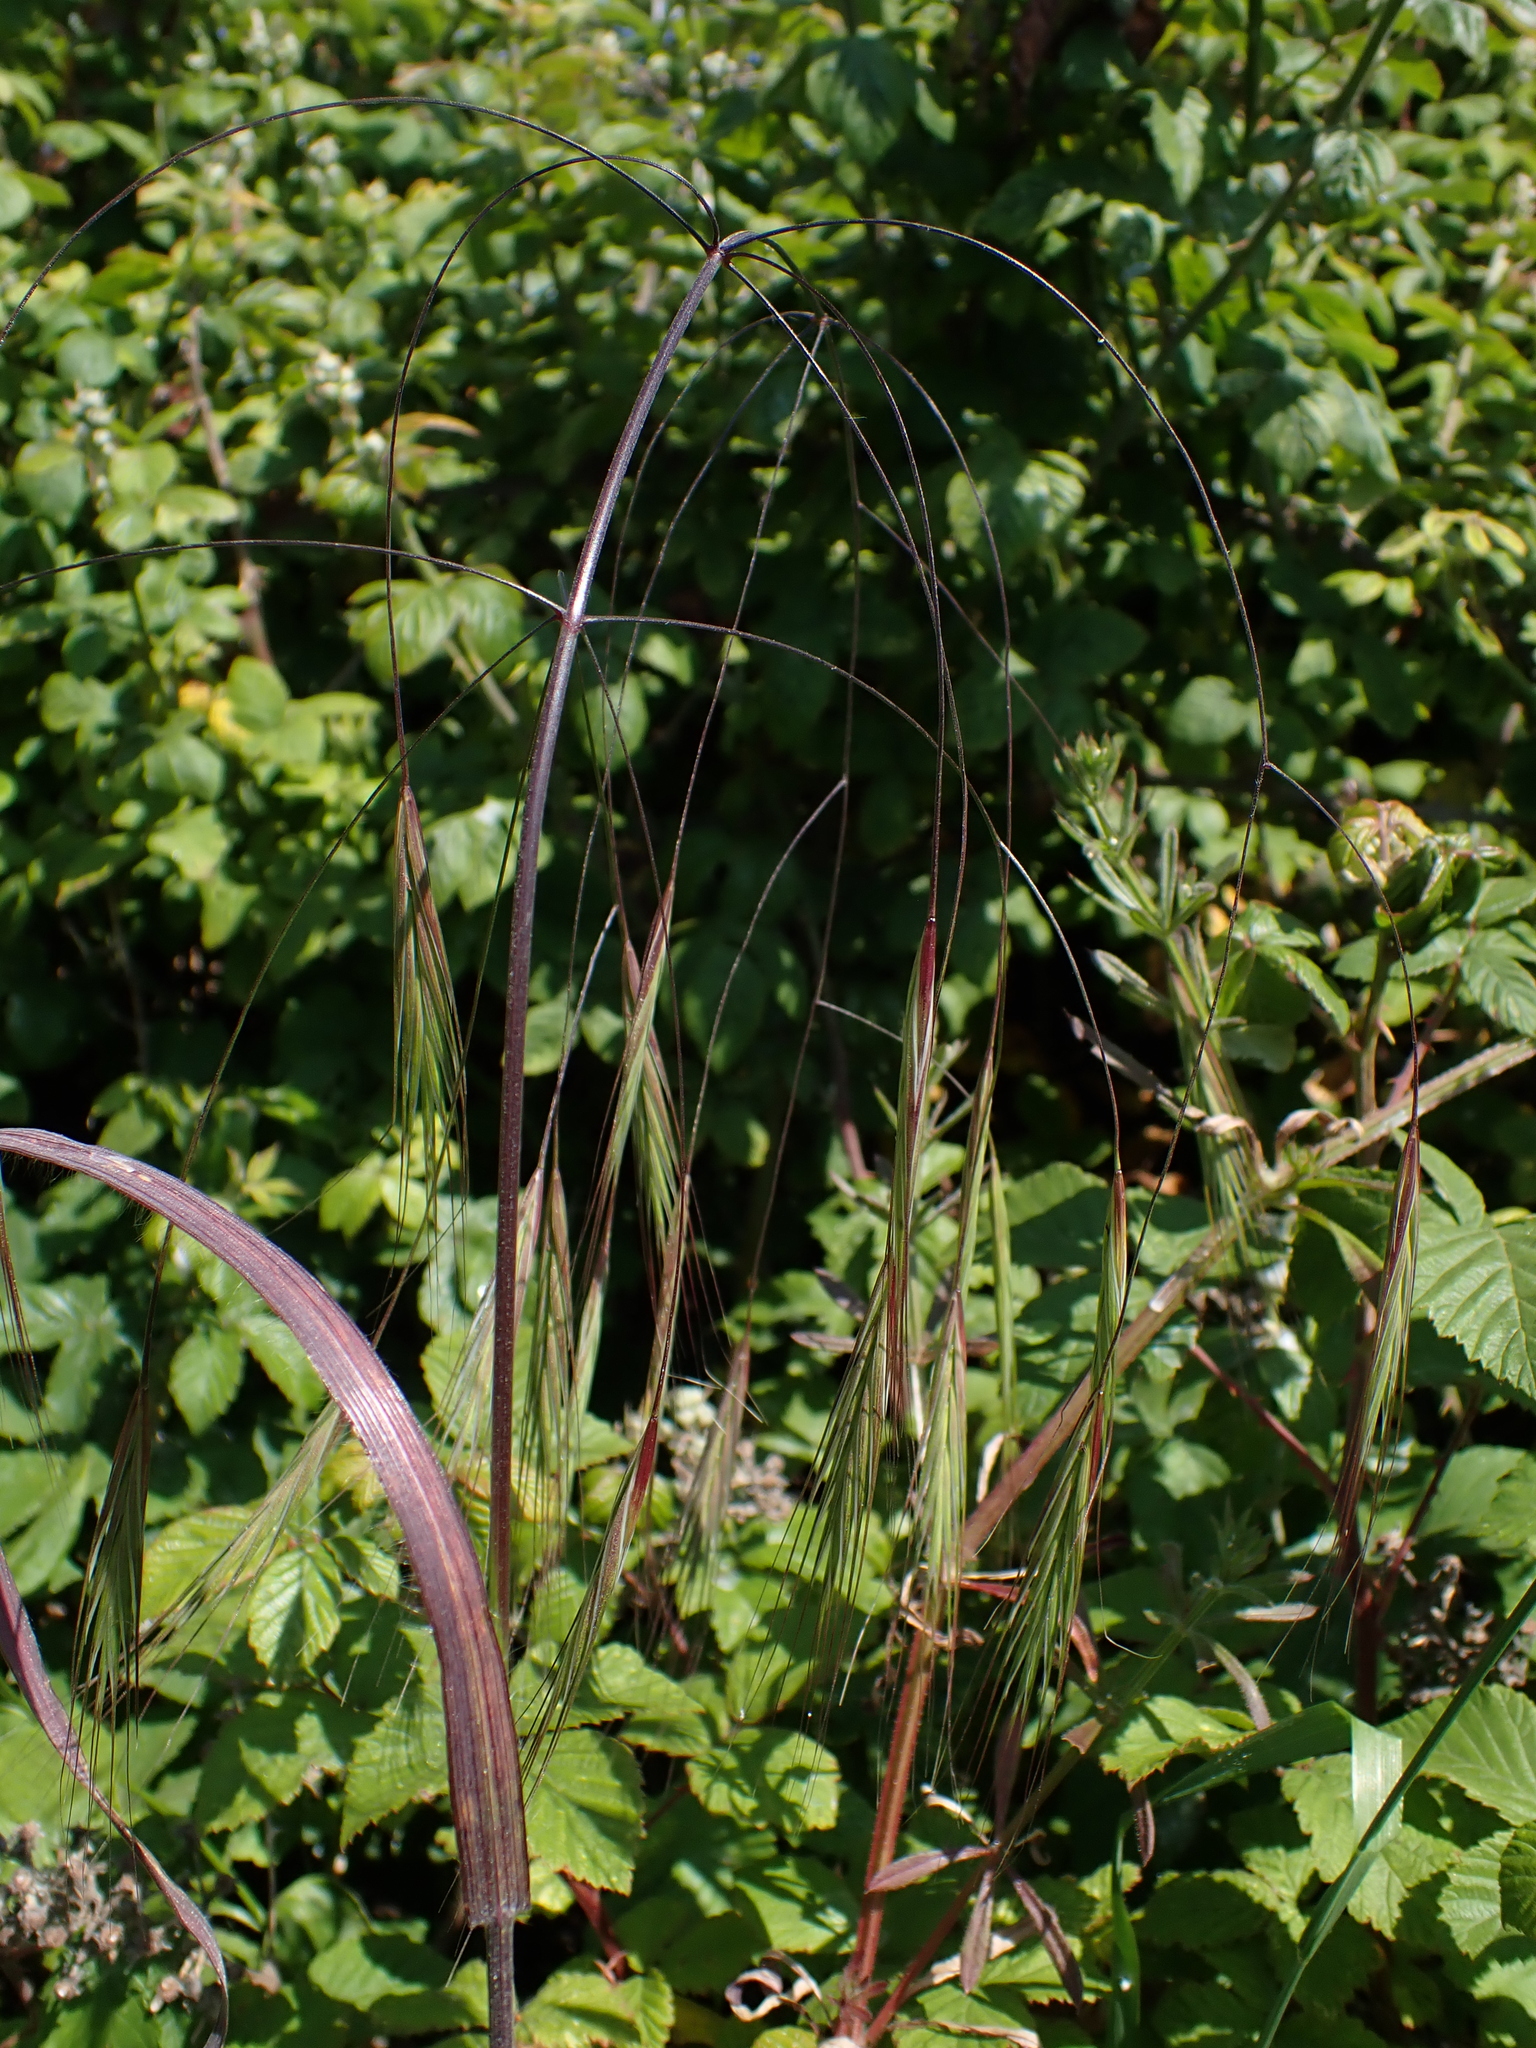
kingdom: Plantae
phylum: Tracheophyta
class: Liliopsida
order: Poales
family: Poaceae
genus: Bromus
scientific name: Bromus sterilis
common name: Poverty brome
